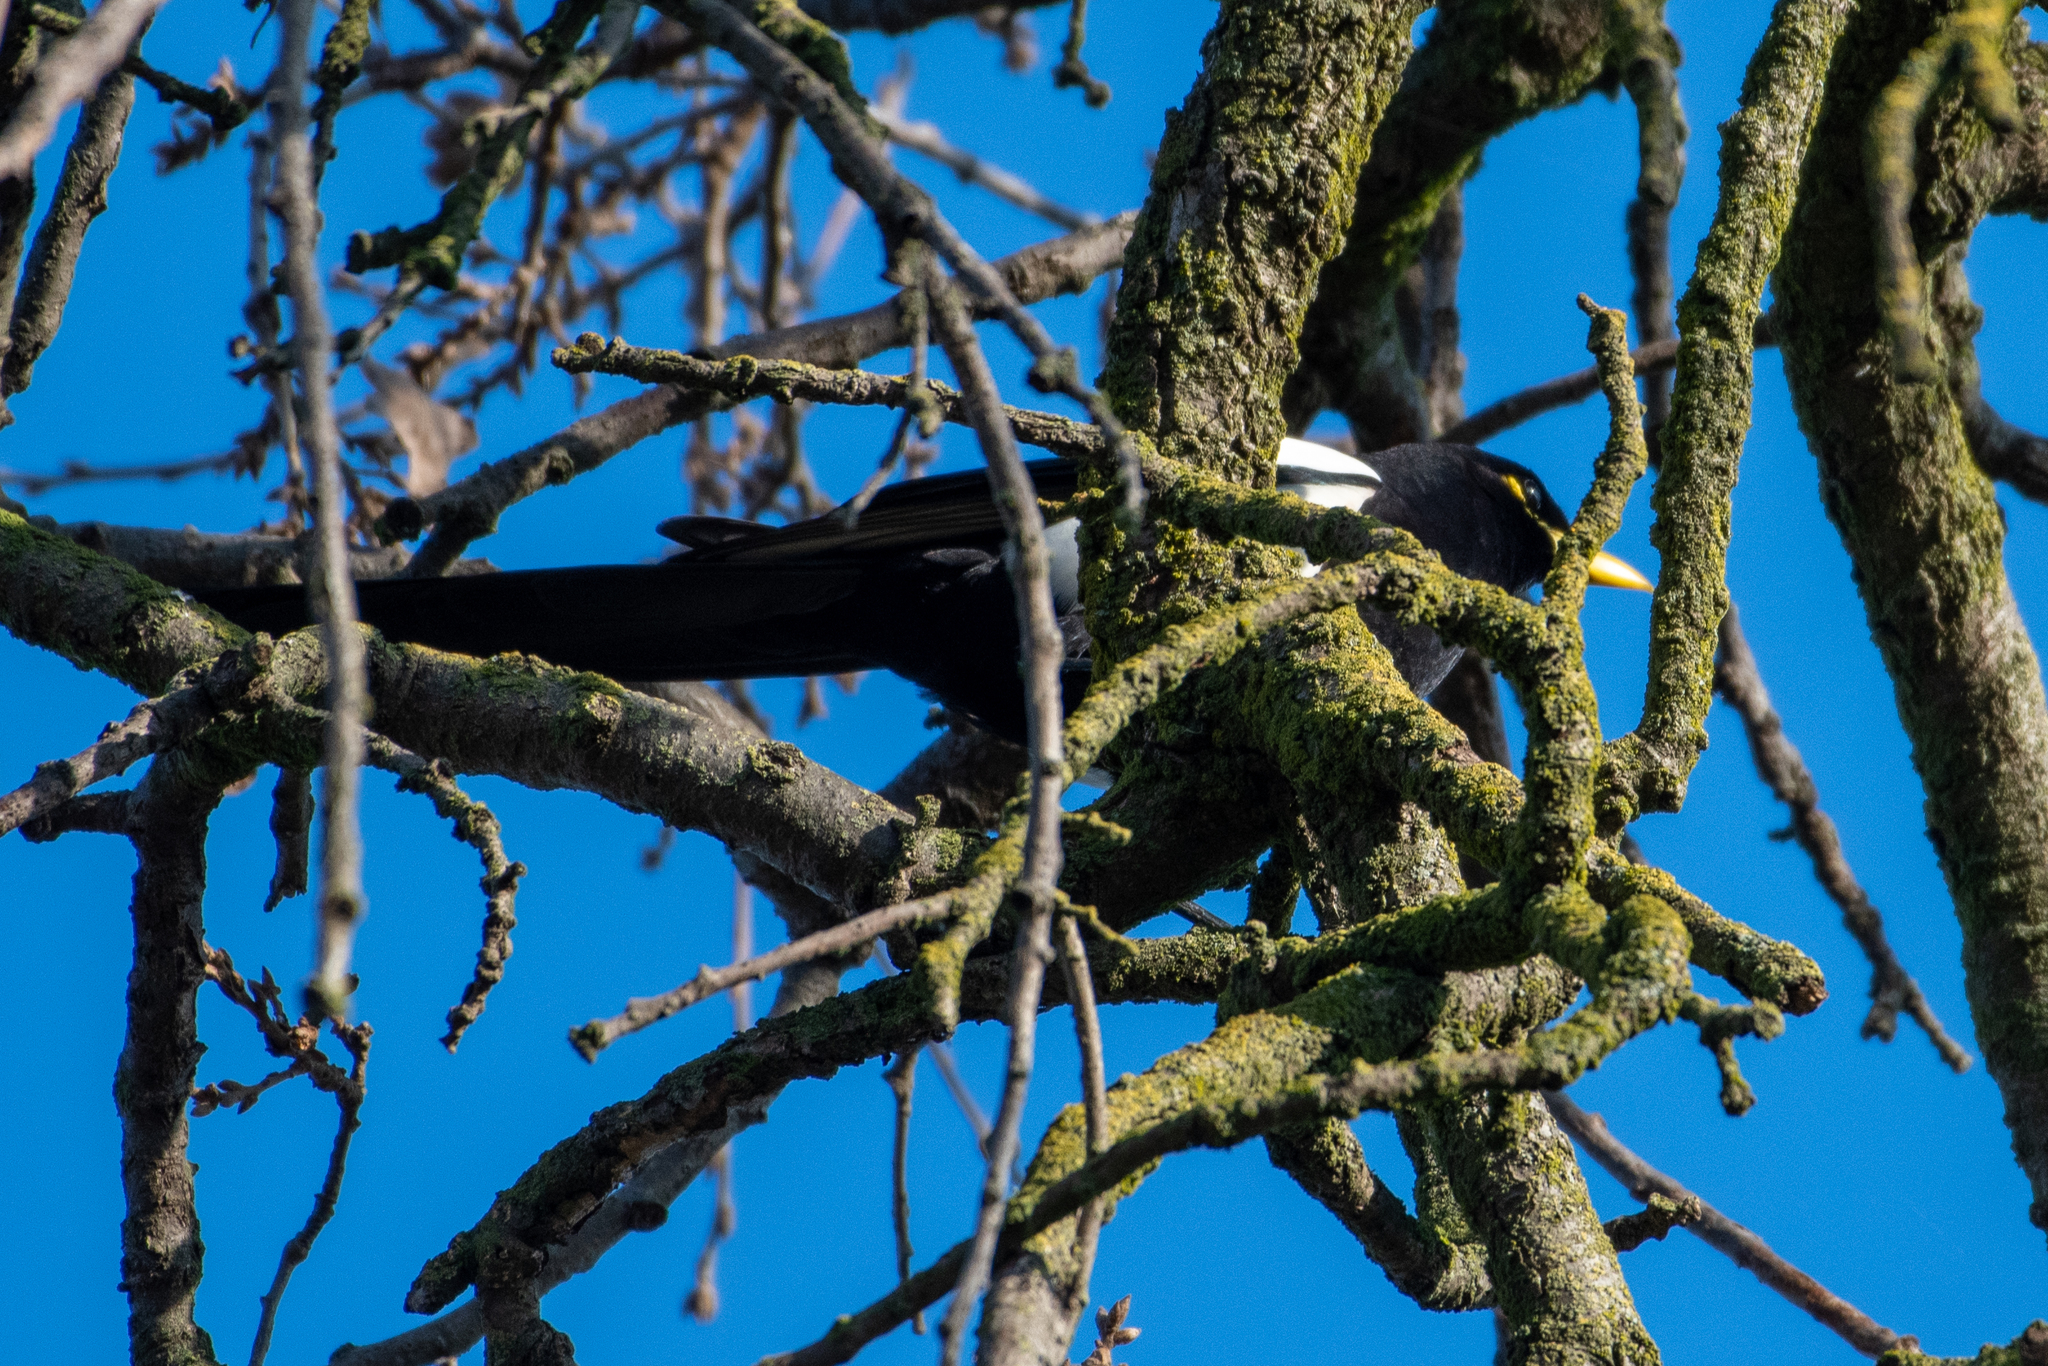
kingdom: Animalia
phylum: Chordata
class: Aves
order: Passeriformes
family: Corvidae
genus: Pica
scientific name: Pica nuttalli
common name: Yellow-billed magpie
